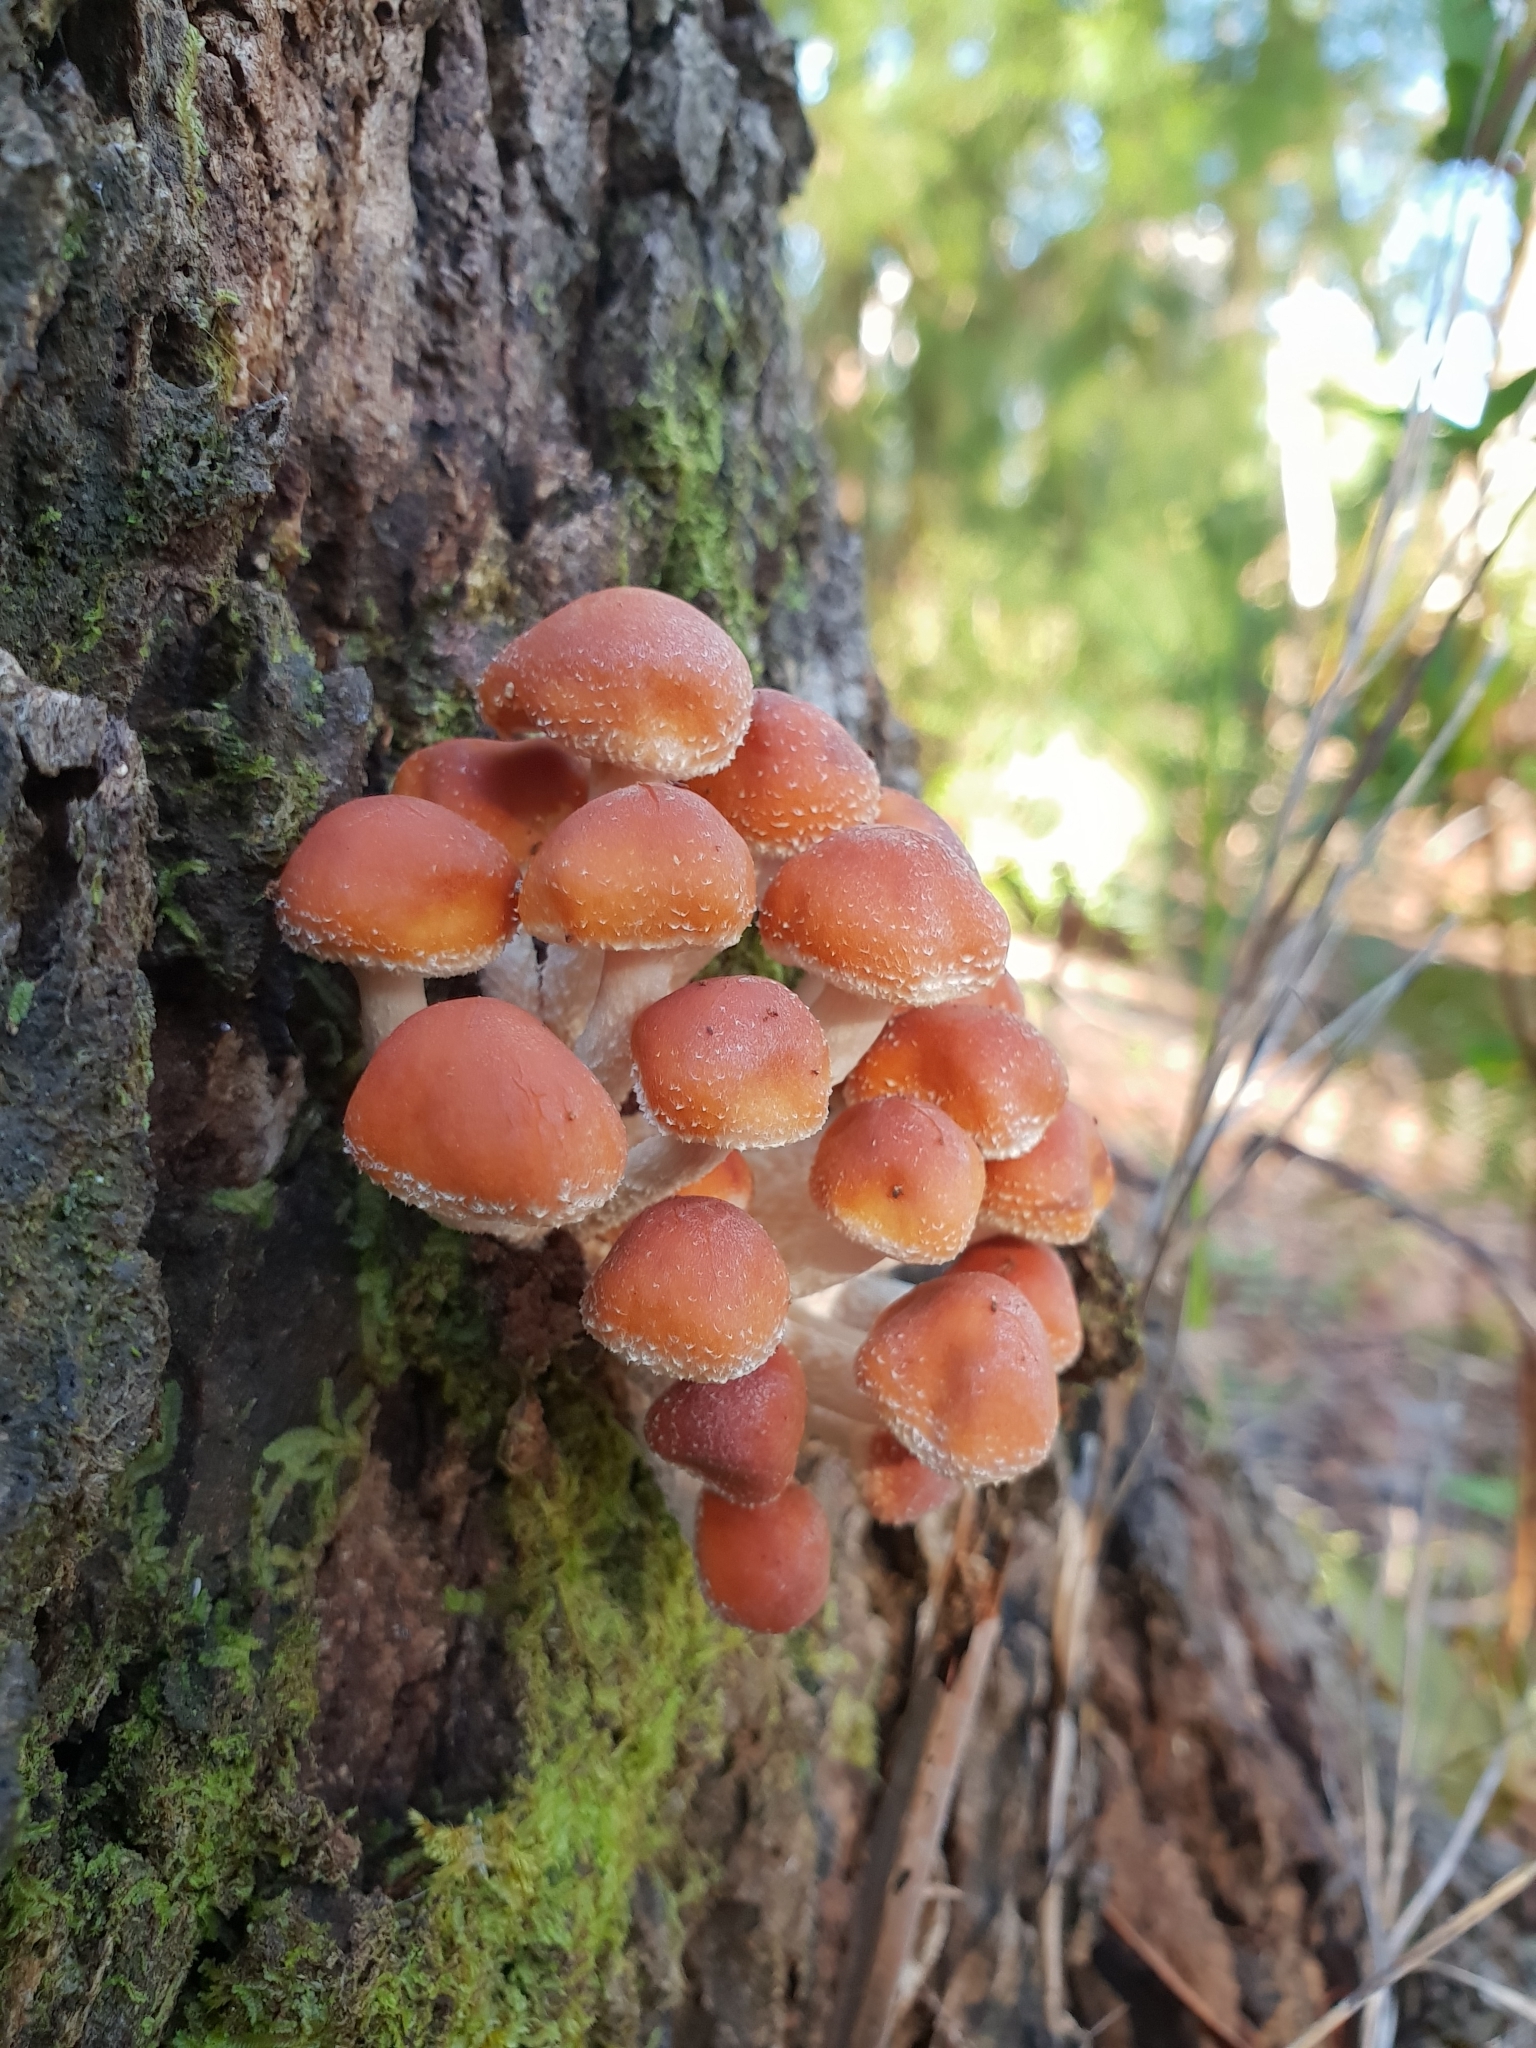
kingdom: Fungi
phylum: Basidiomycota
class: Agaricomycetes
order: Agaricales
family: Strophariaceae
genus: Hypholoma
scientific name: Hypholoma australianum
